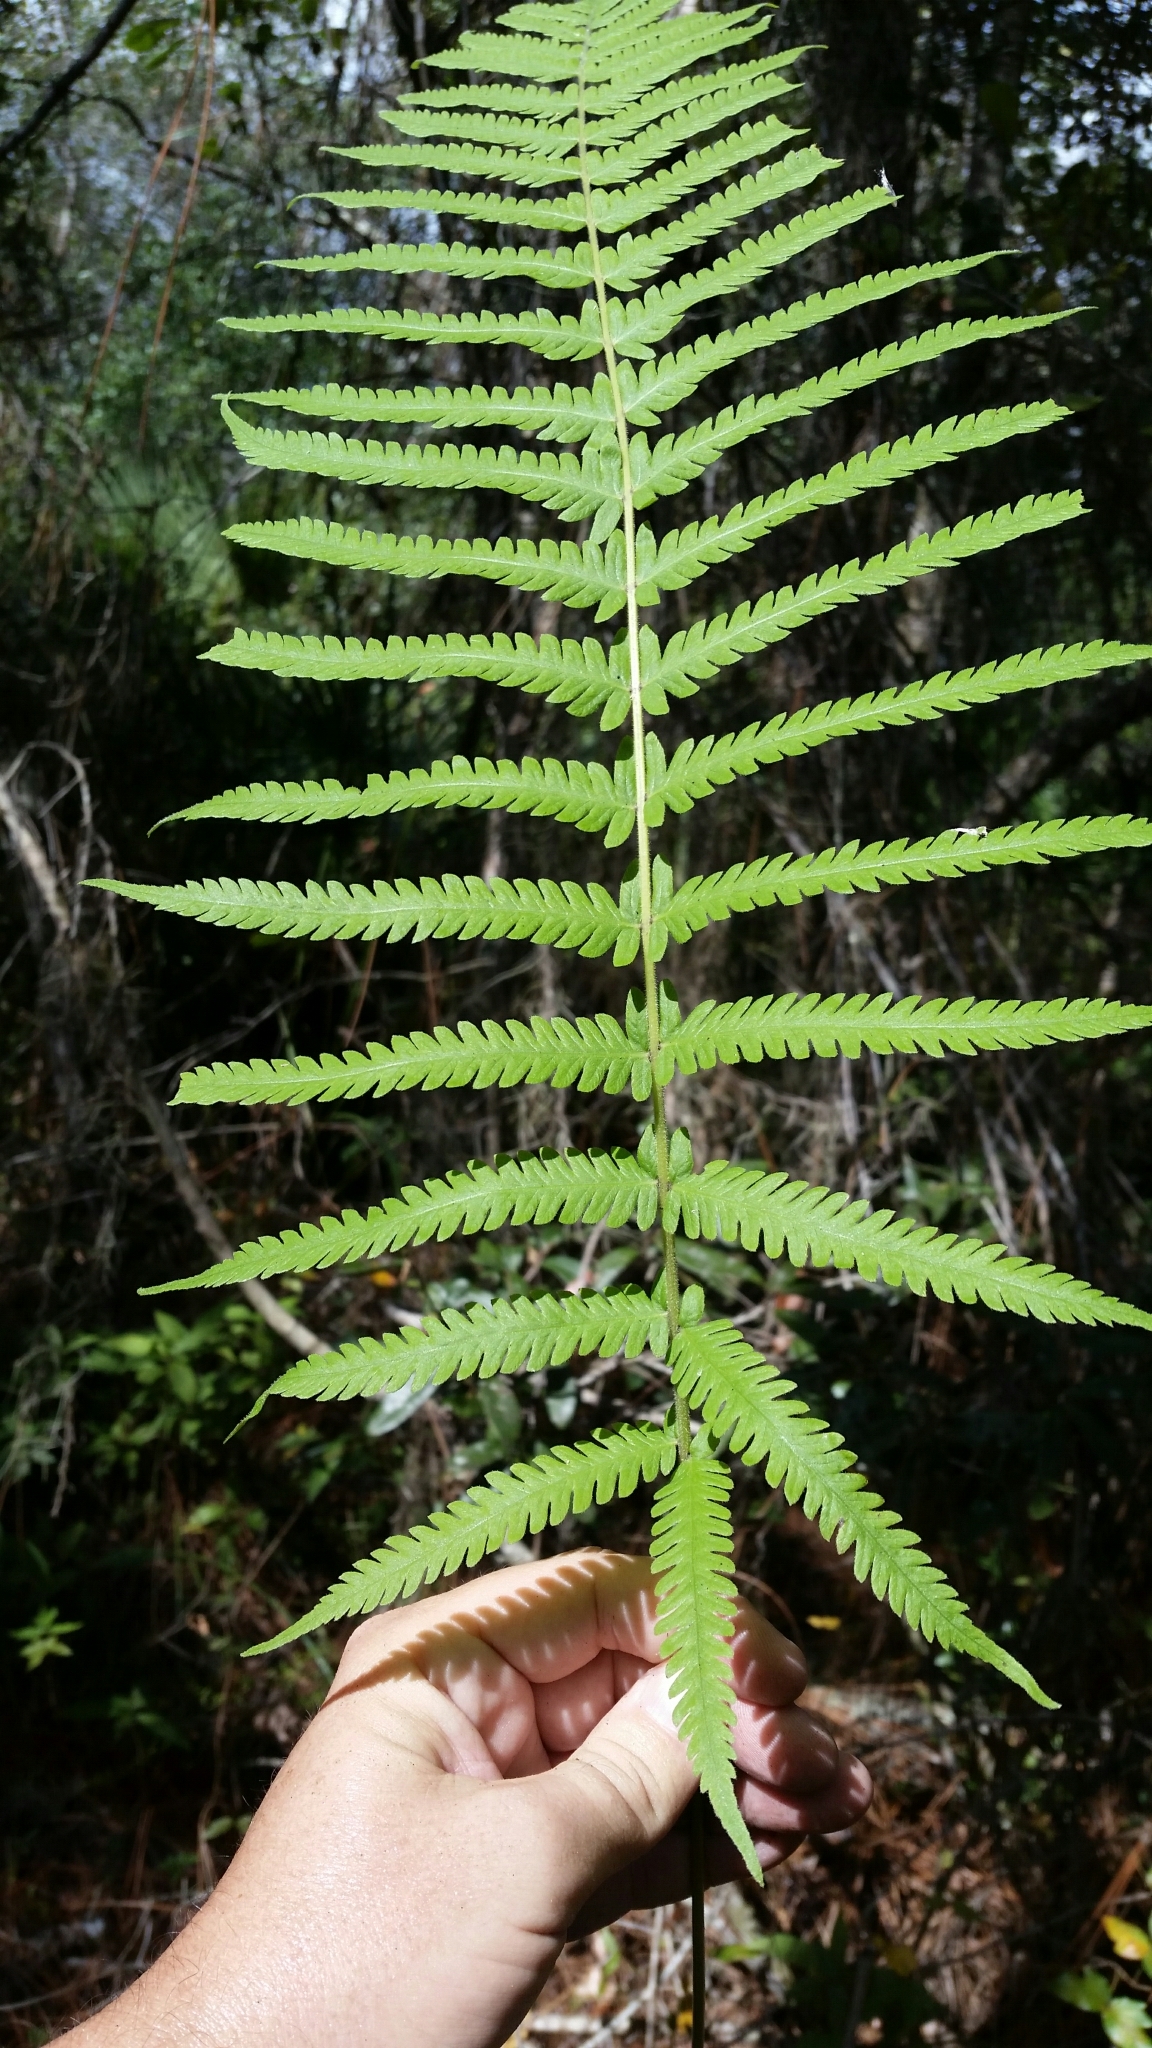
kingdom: Plantae
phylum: Tracheophyta
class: Polypodiopsida
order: Polypodiales
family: Thelypteridaceae
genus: Pelazoneuron
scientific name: Pelazoneuron kunthii
